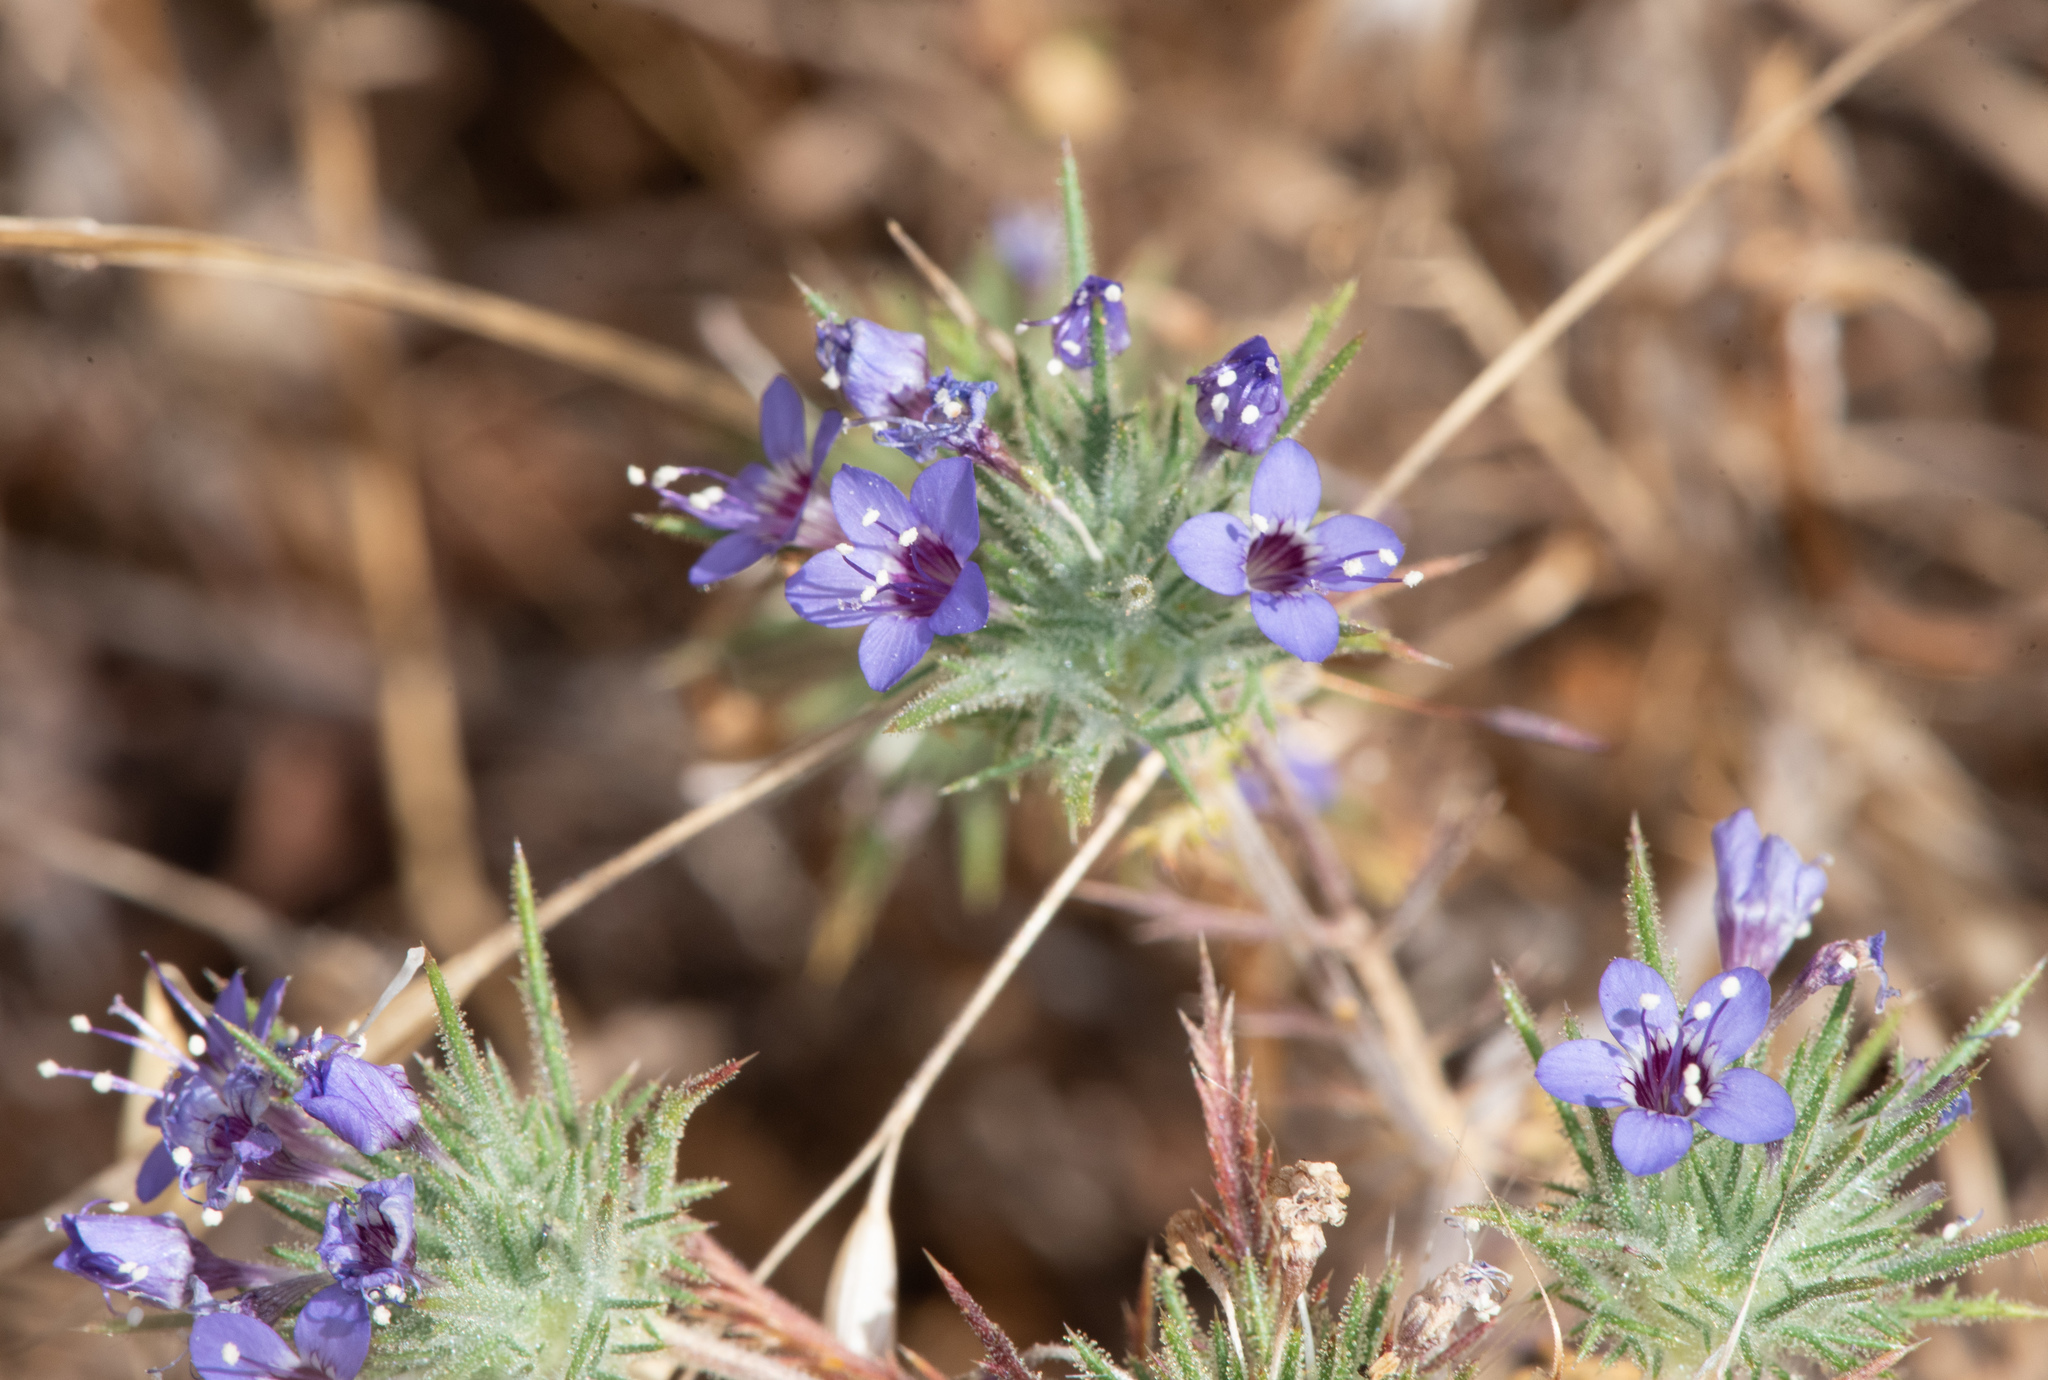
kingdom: Plantae
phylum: Tracheophyta
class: Magnoliopsida
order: Ericales
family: Polemoniaceae
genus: Navarretia
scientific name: Navarretia pubescens
